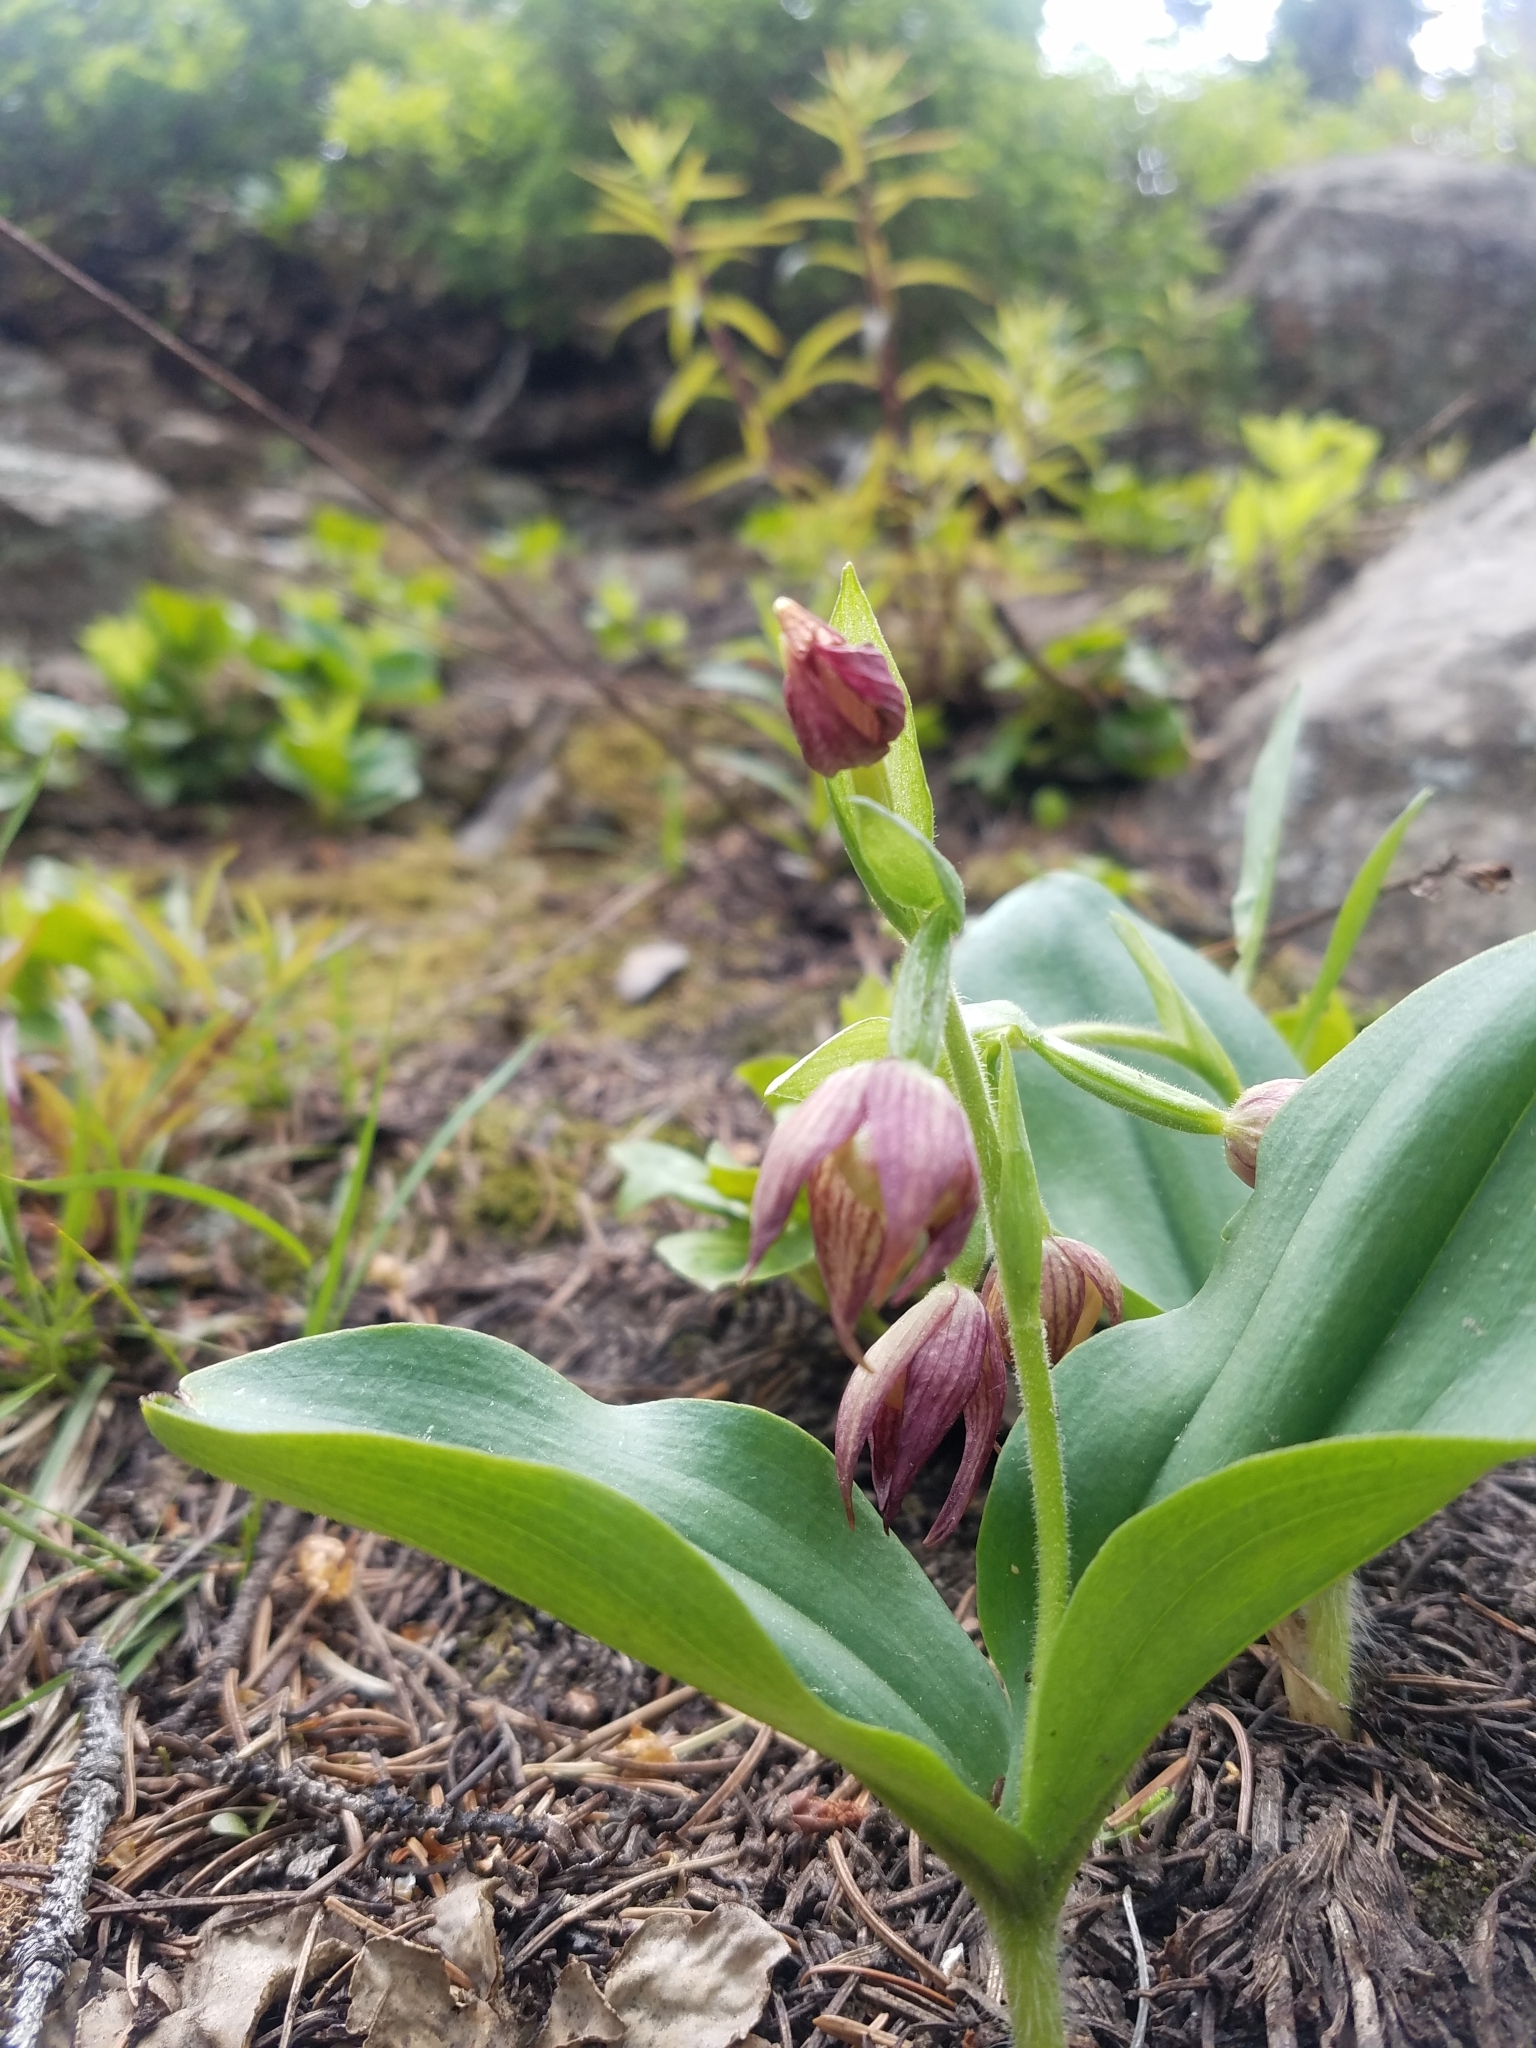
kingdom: Plantae
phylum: Tracheophyta
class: Liliopsida
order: Asparagales
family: Orchidaceae
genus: Cypripedium
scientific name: Cypripedium fasciculatum
